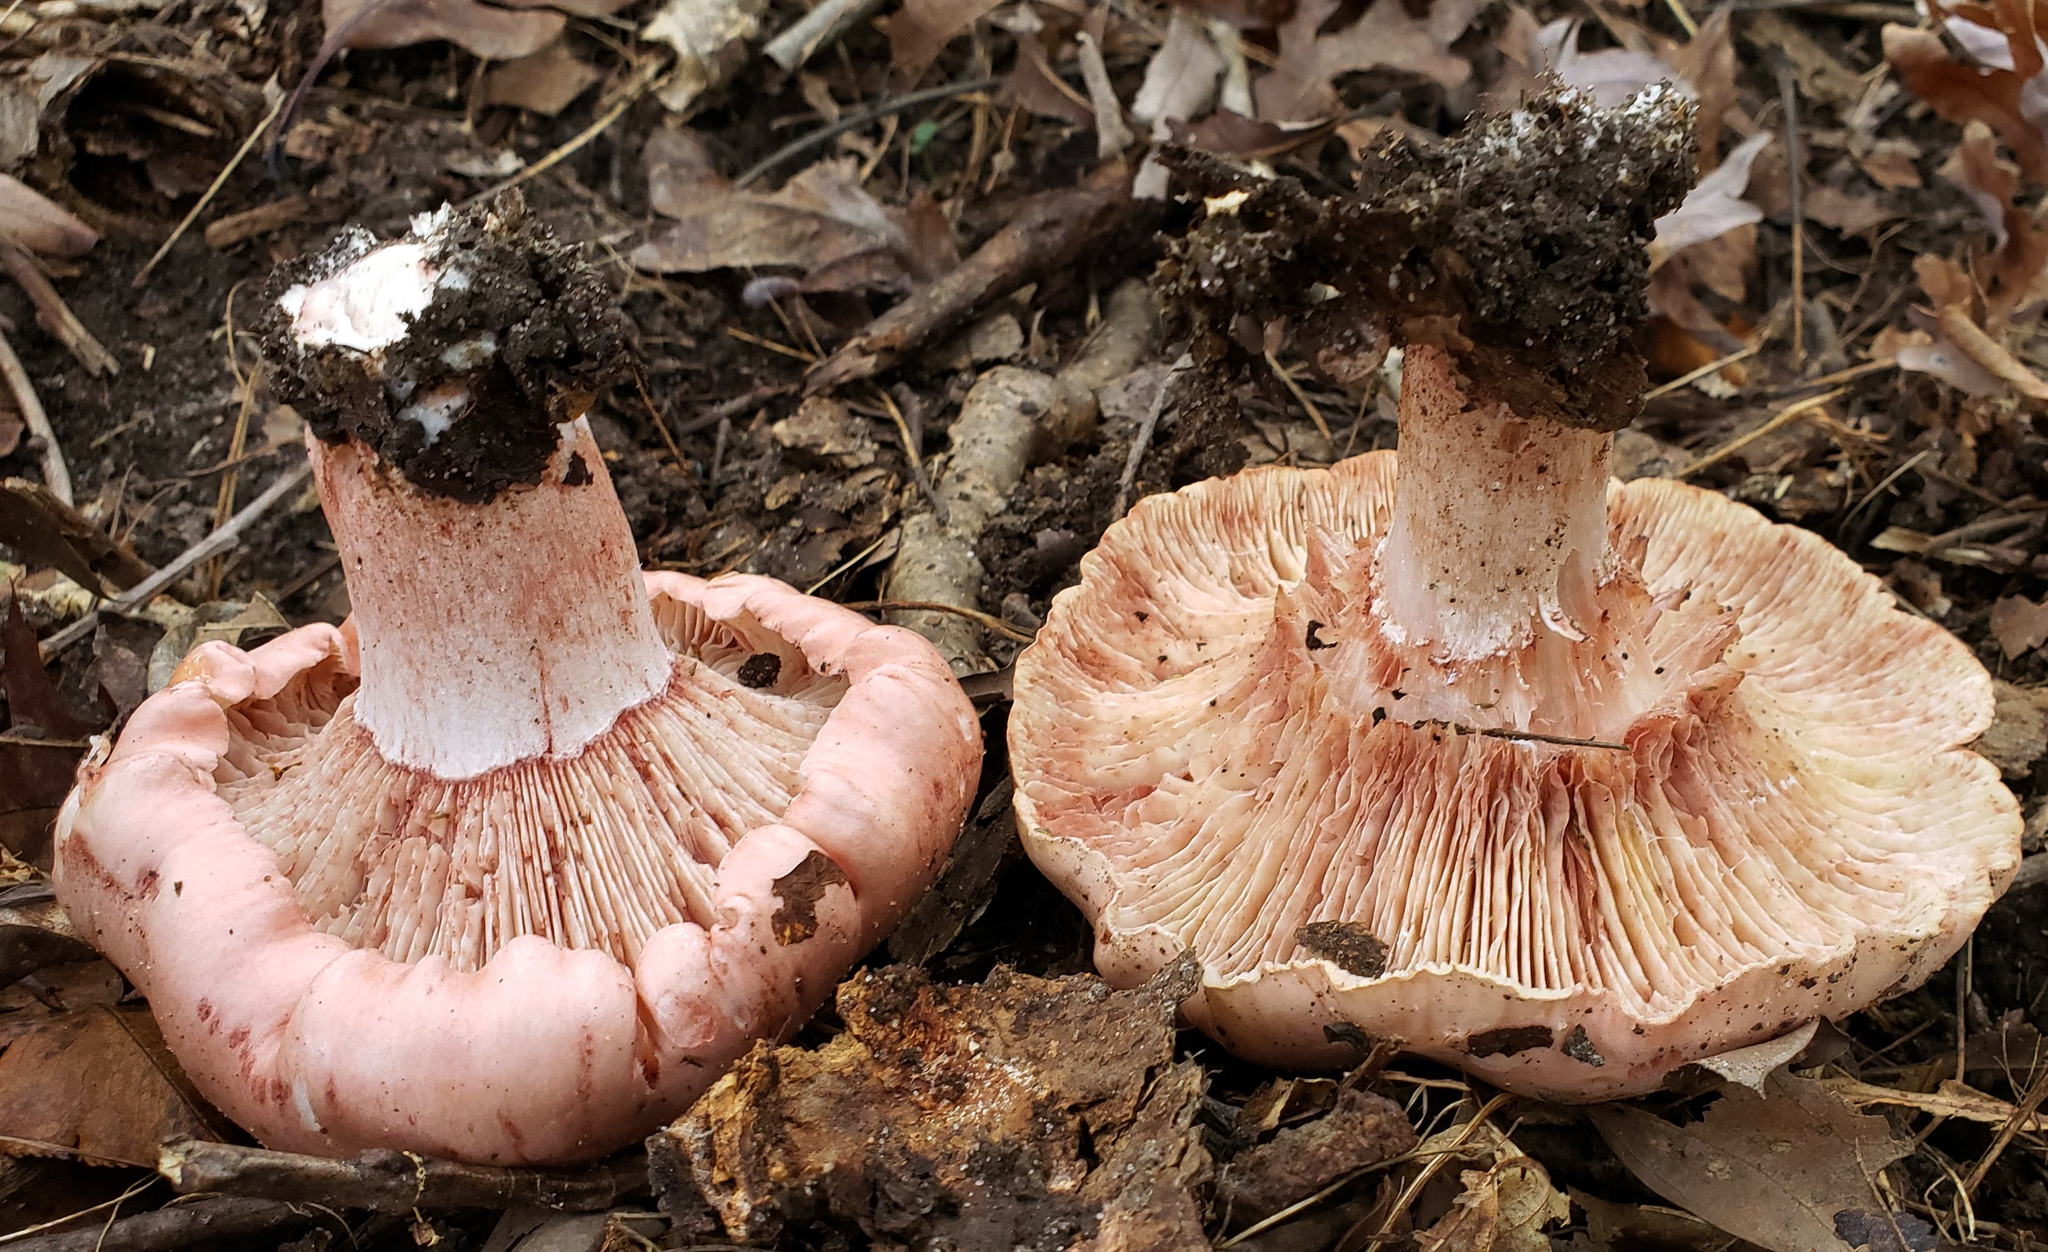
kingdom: Fungi
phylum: Basidiomycota
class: Agaricomycetes
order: Agaricales
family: Hygrophoraceae
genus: Hygrophorus
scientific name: Hygrophorus russula
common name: Pinkmottle woodwax
